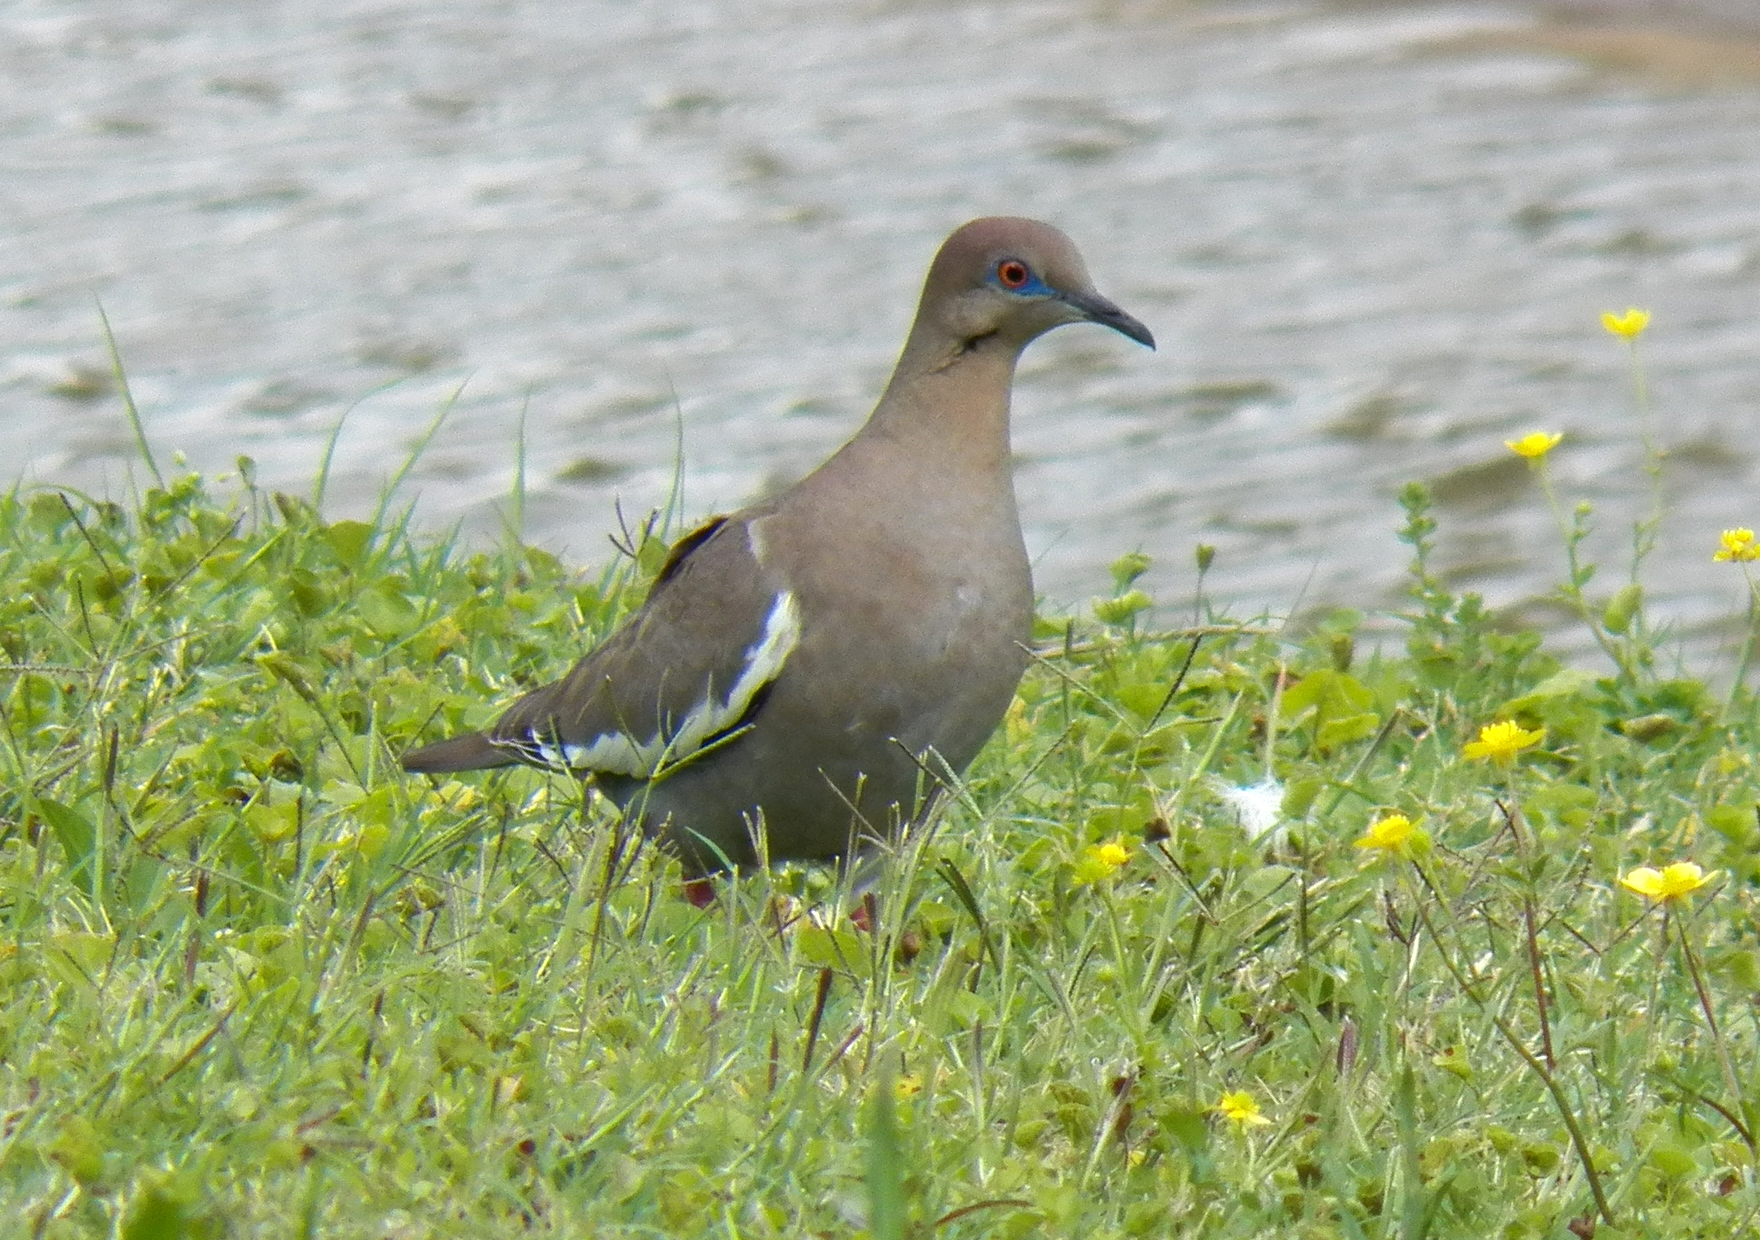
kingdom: Animalia
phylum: Chordata
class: Aves
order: Columbiformes
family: Columbidae
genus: Zenaida
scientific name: Zenaida asiatica
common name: White-winged dove
